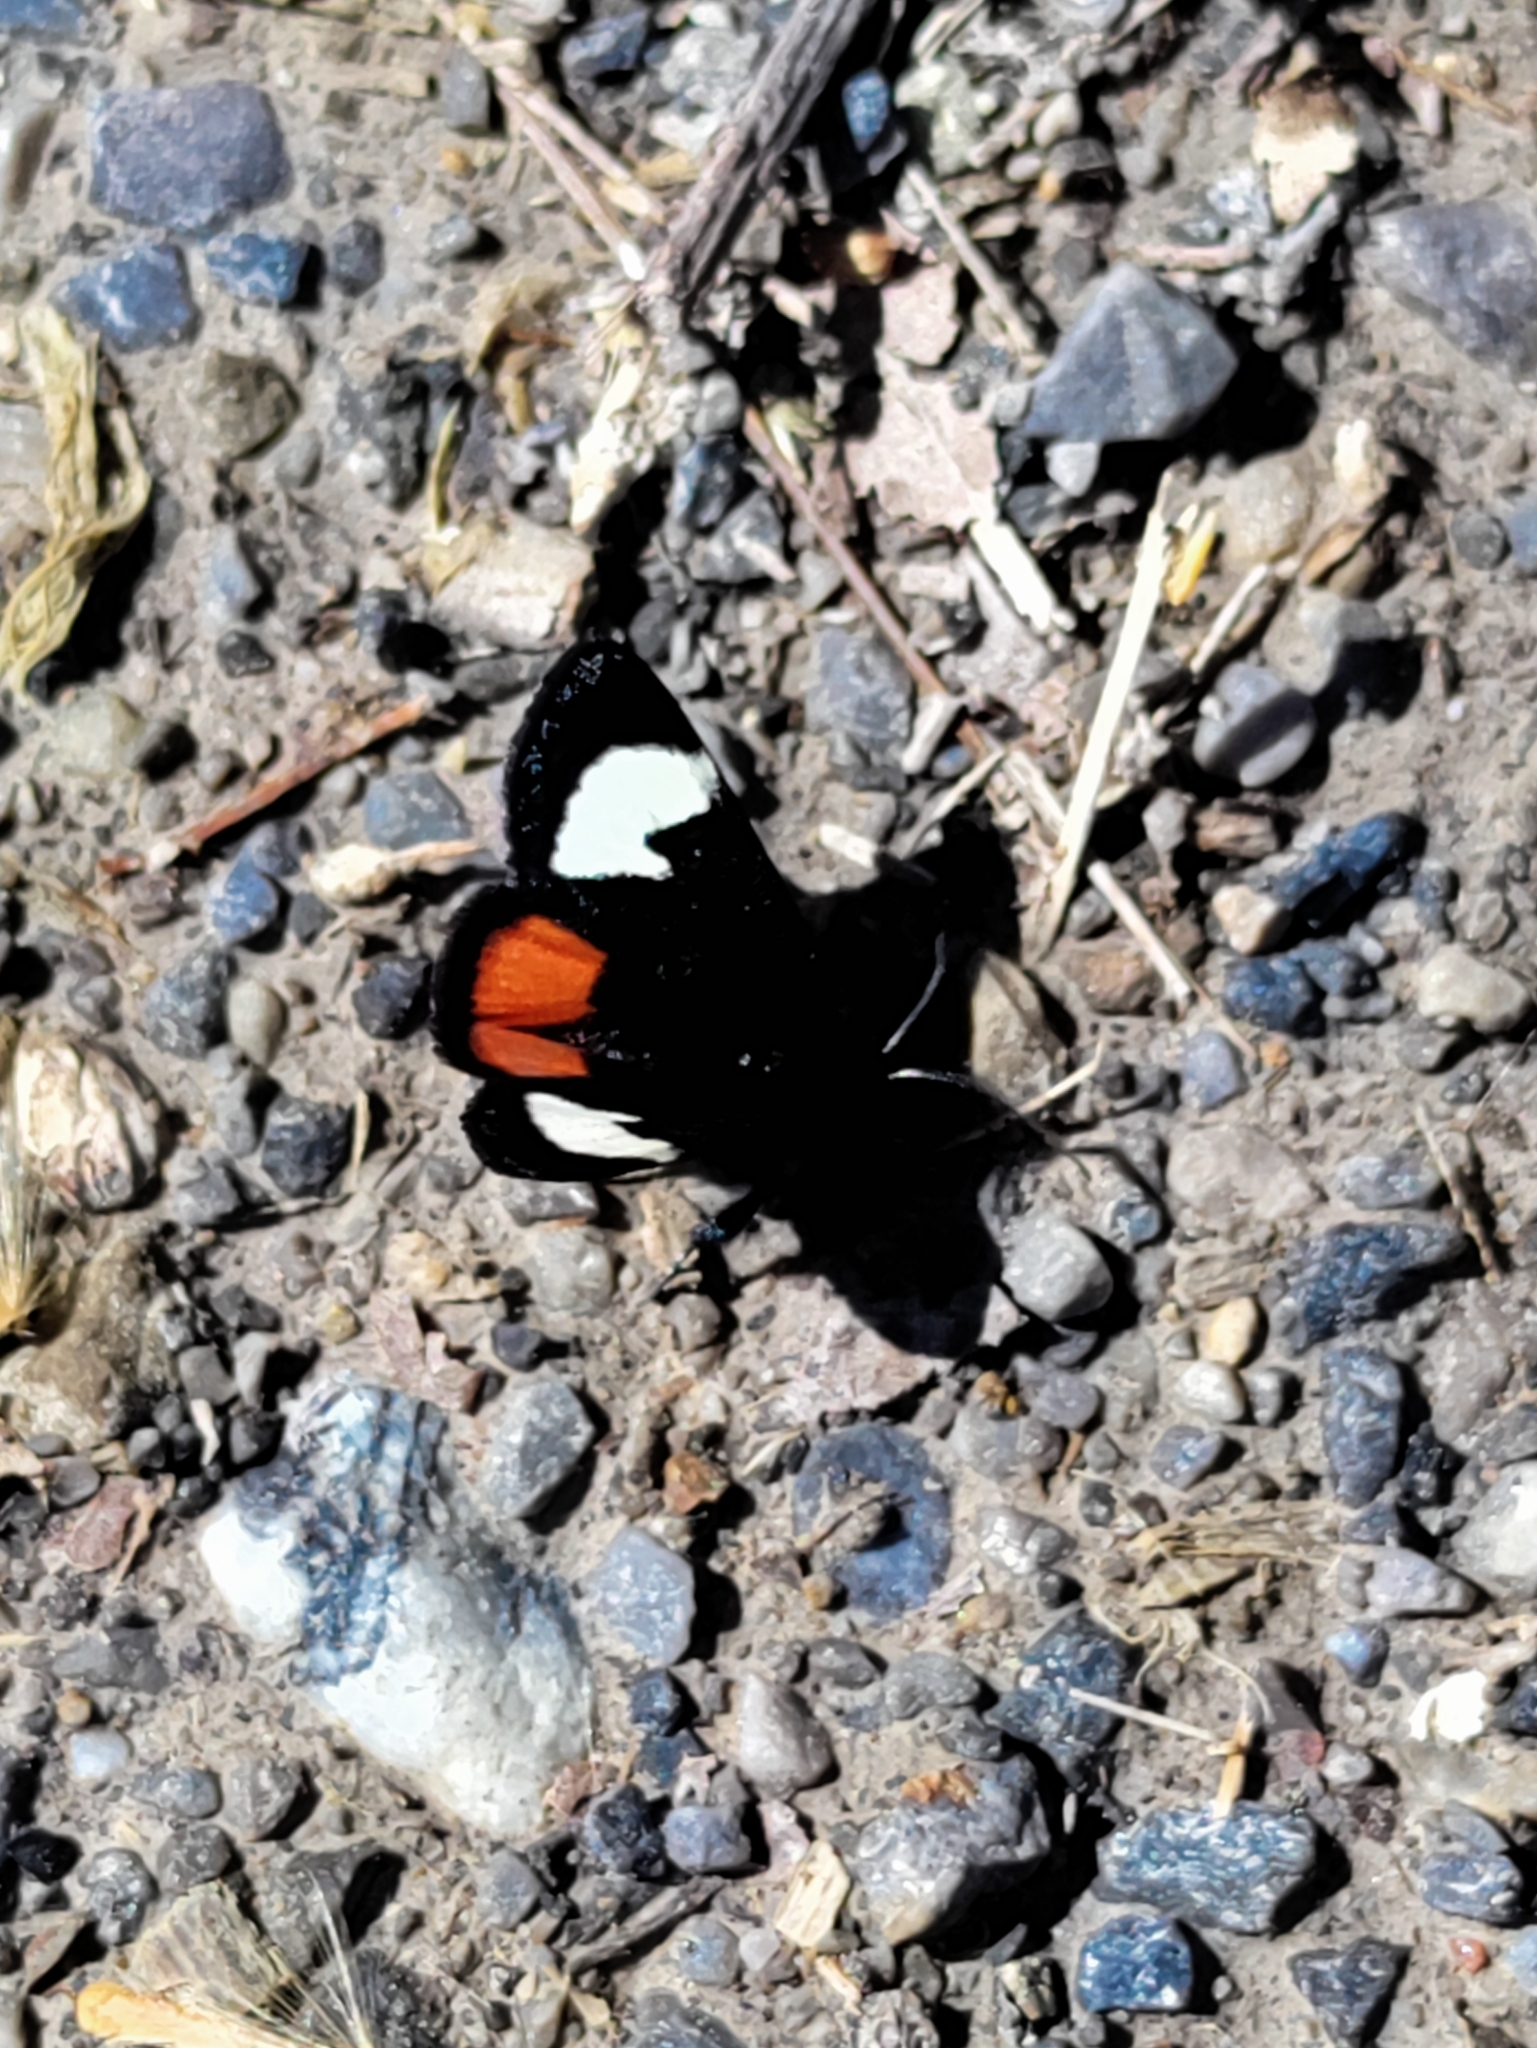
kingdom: Animalia
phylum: Arthropoda
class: Insecta
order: Lepidoptera
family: Noctuidae
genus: Psychomorpha
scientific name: Psychomorpha epimenis
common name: Grapevine epimenis moth
